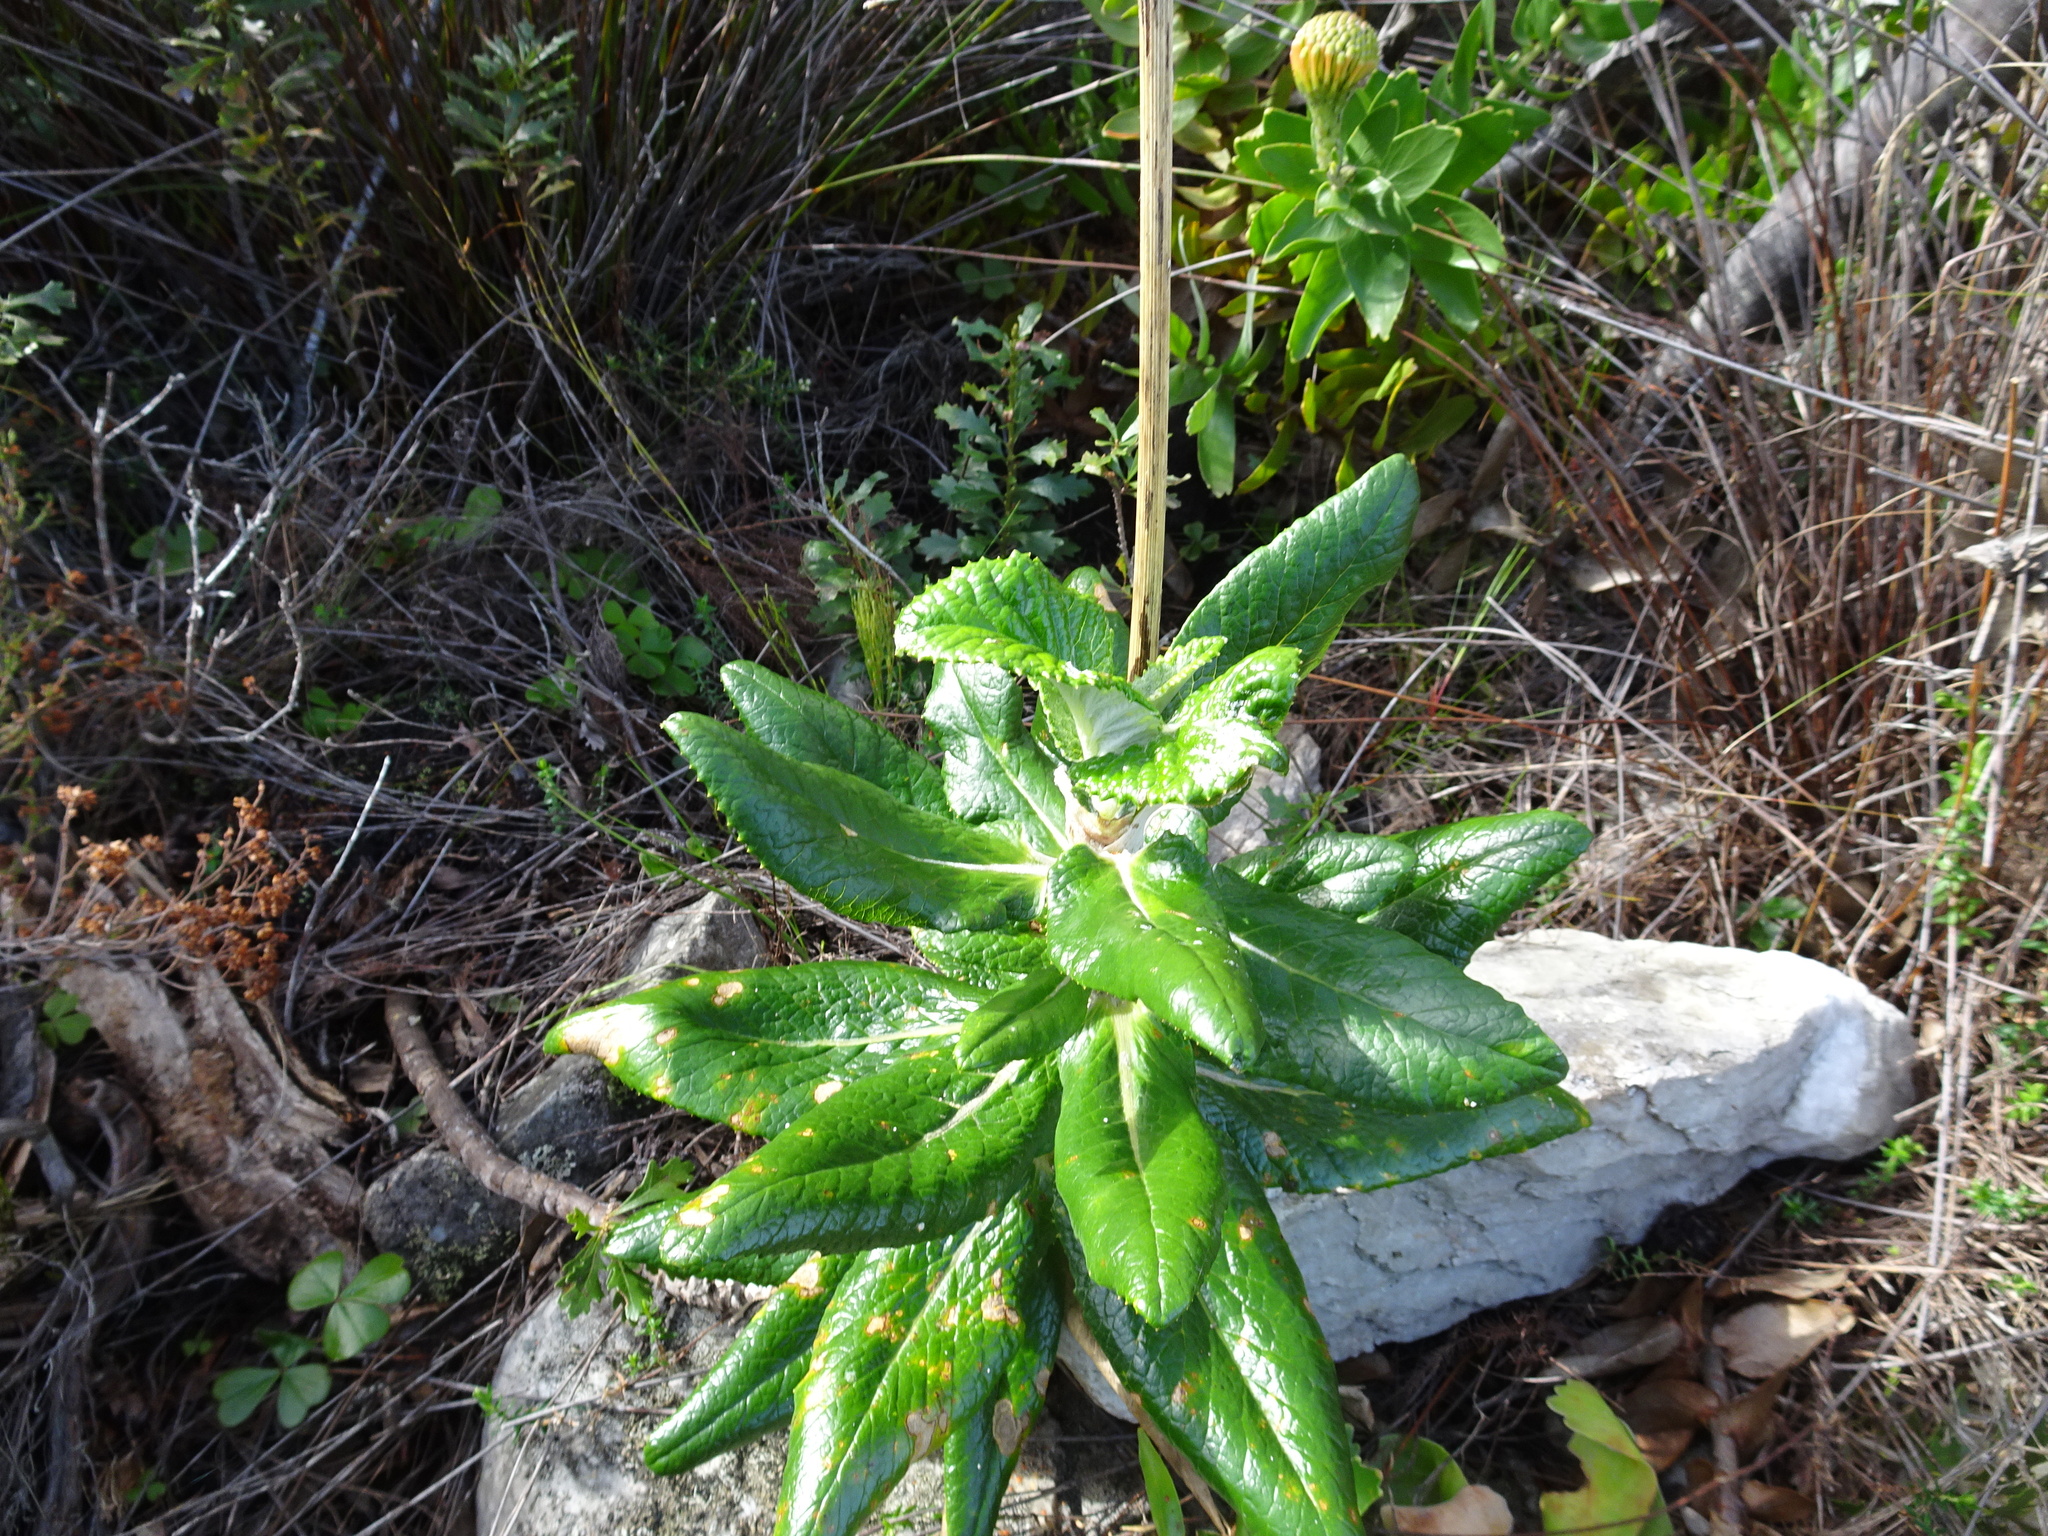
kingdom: Plantae
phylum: Tracheophyta
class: Magnoliopsida
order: Apiales
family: Apiaceae
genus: Hermas
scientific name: Hermas villosa
